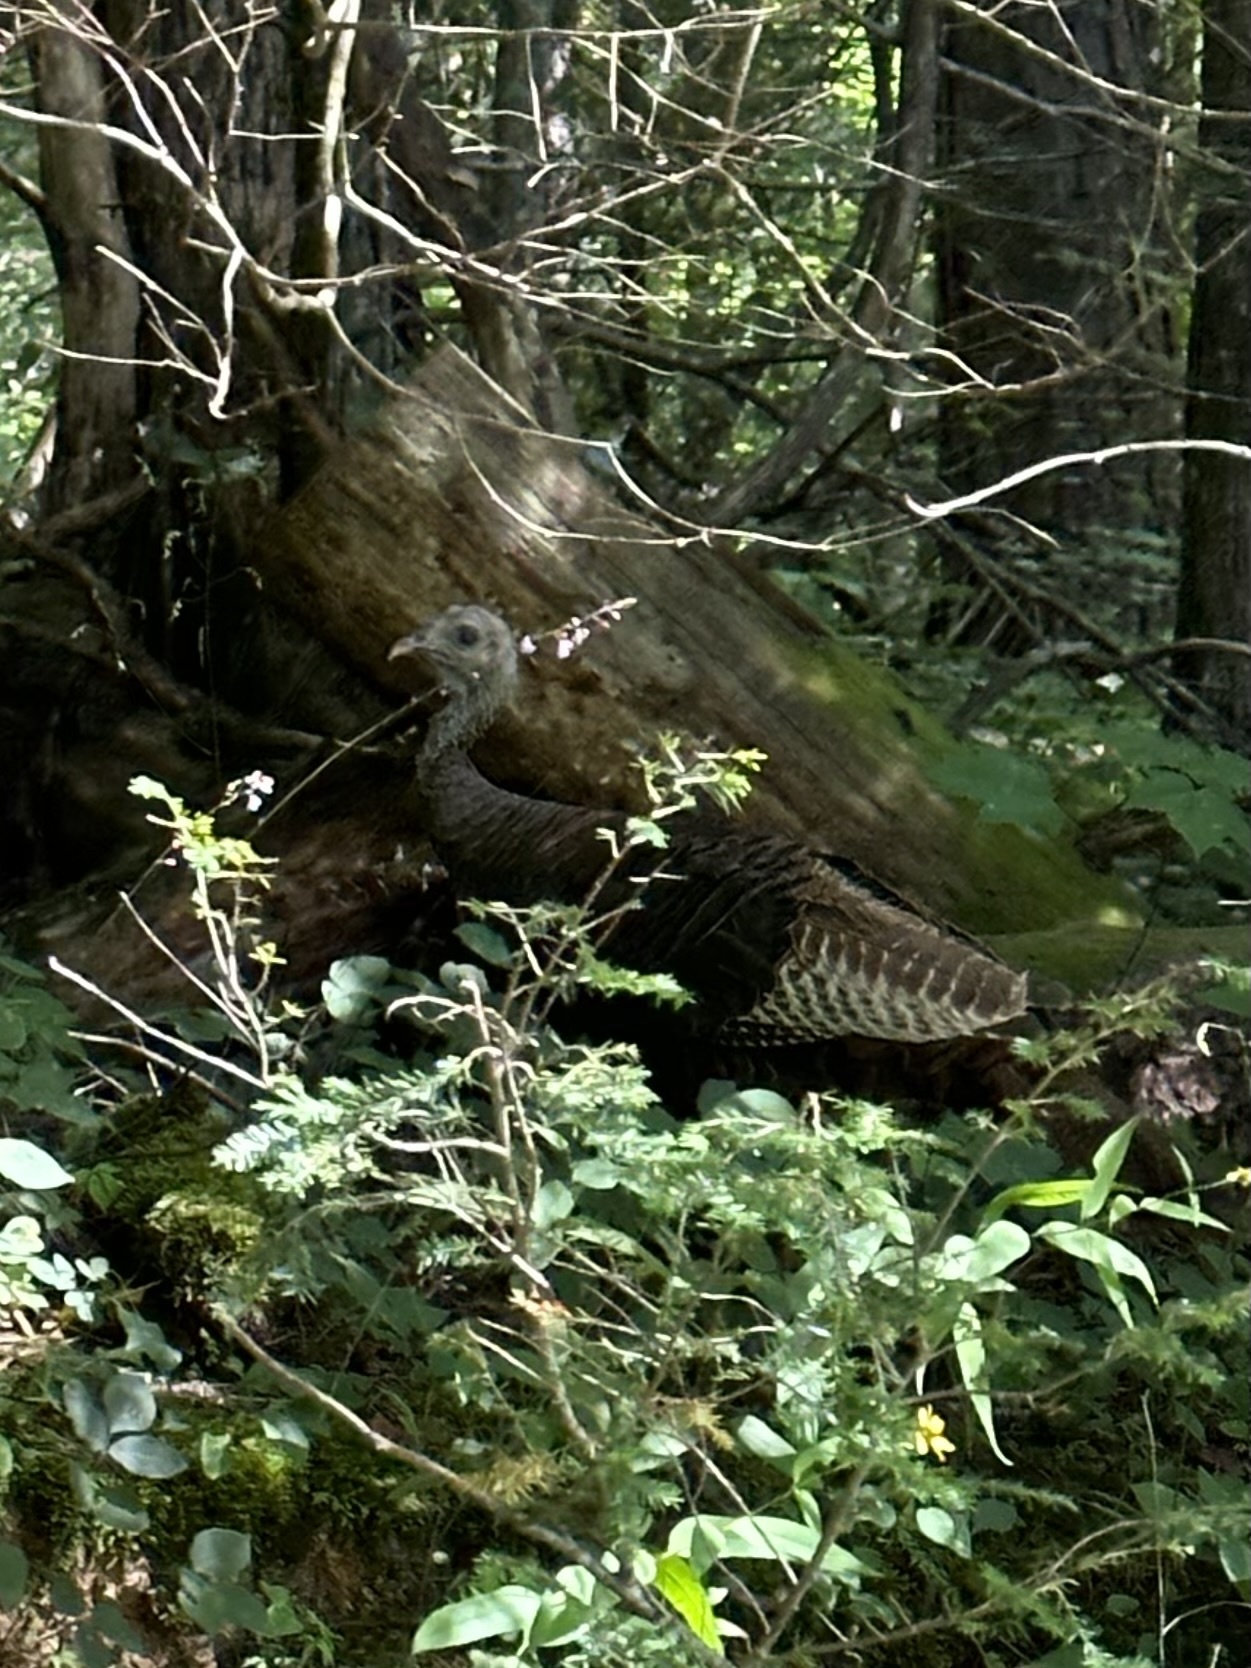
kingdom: Animalia
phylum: Chordata
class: Aves
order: Galliformes
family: Phasianidae
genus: Meleagris
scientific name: Meleagris gallopavo
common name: Wild turkey
